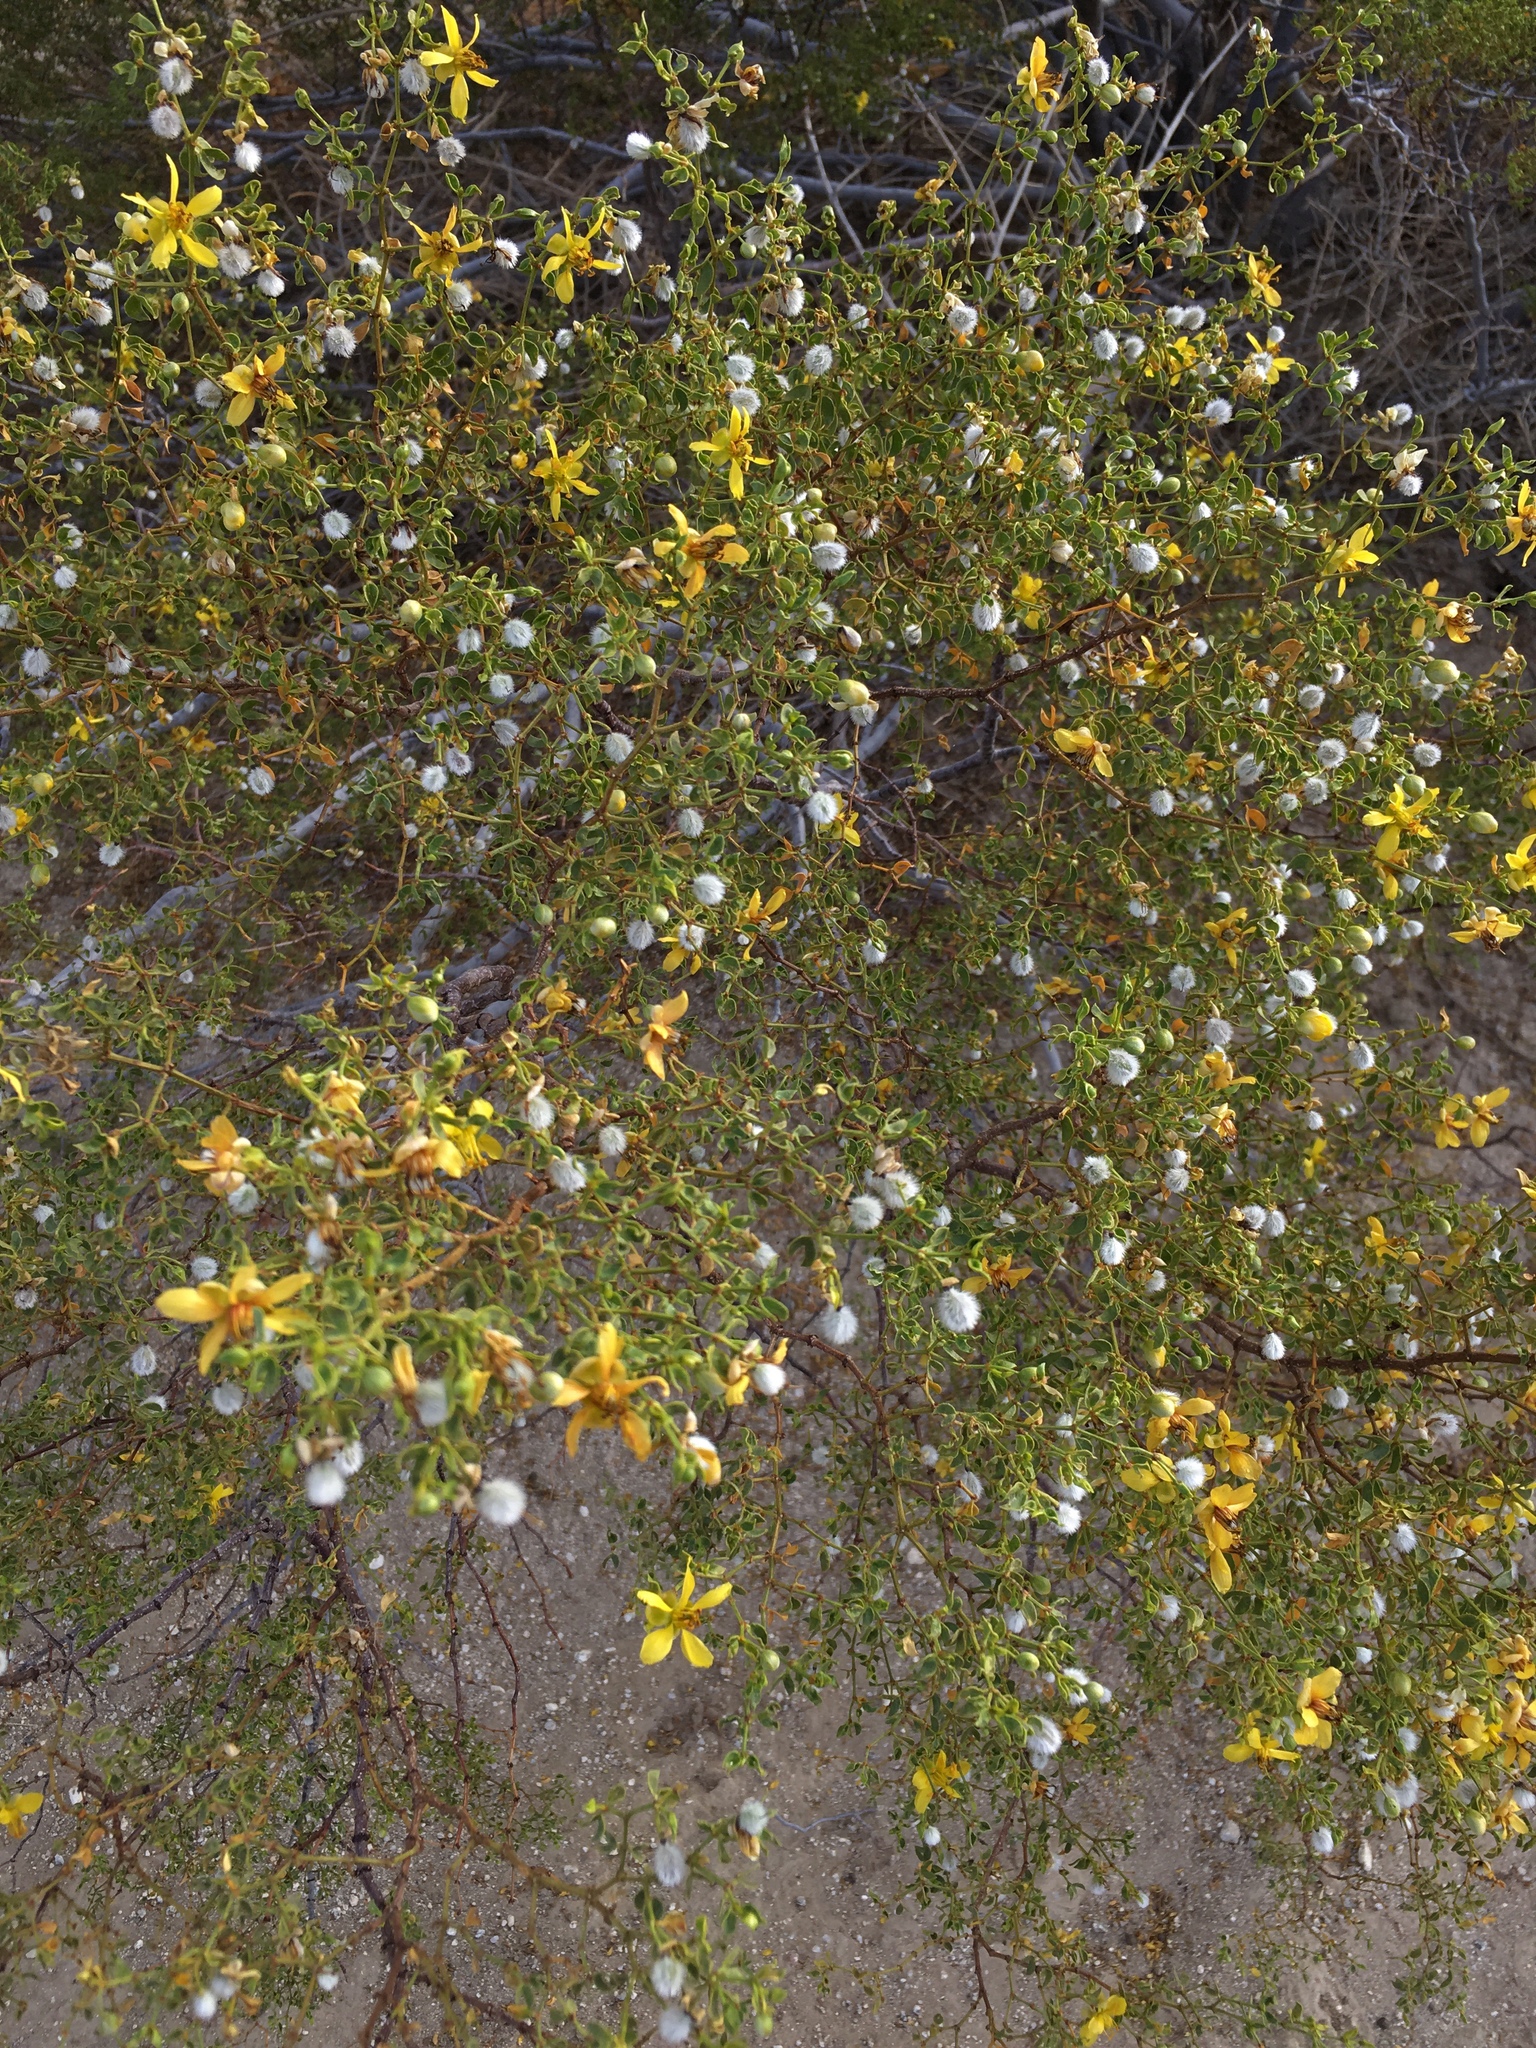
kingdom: Animalia
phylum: Arthropoda
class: Insecta
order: Diptera
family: Cecidomyiidae
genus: Asphondylia
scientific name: Asphondylia auripila
